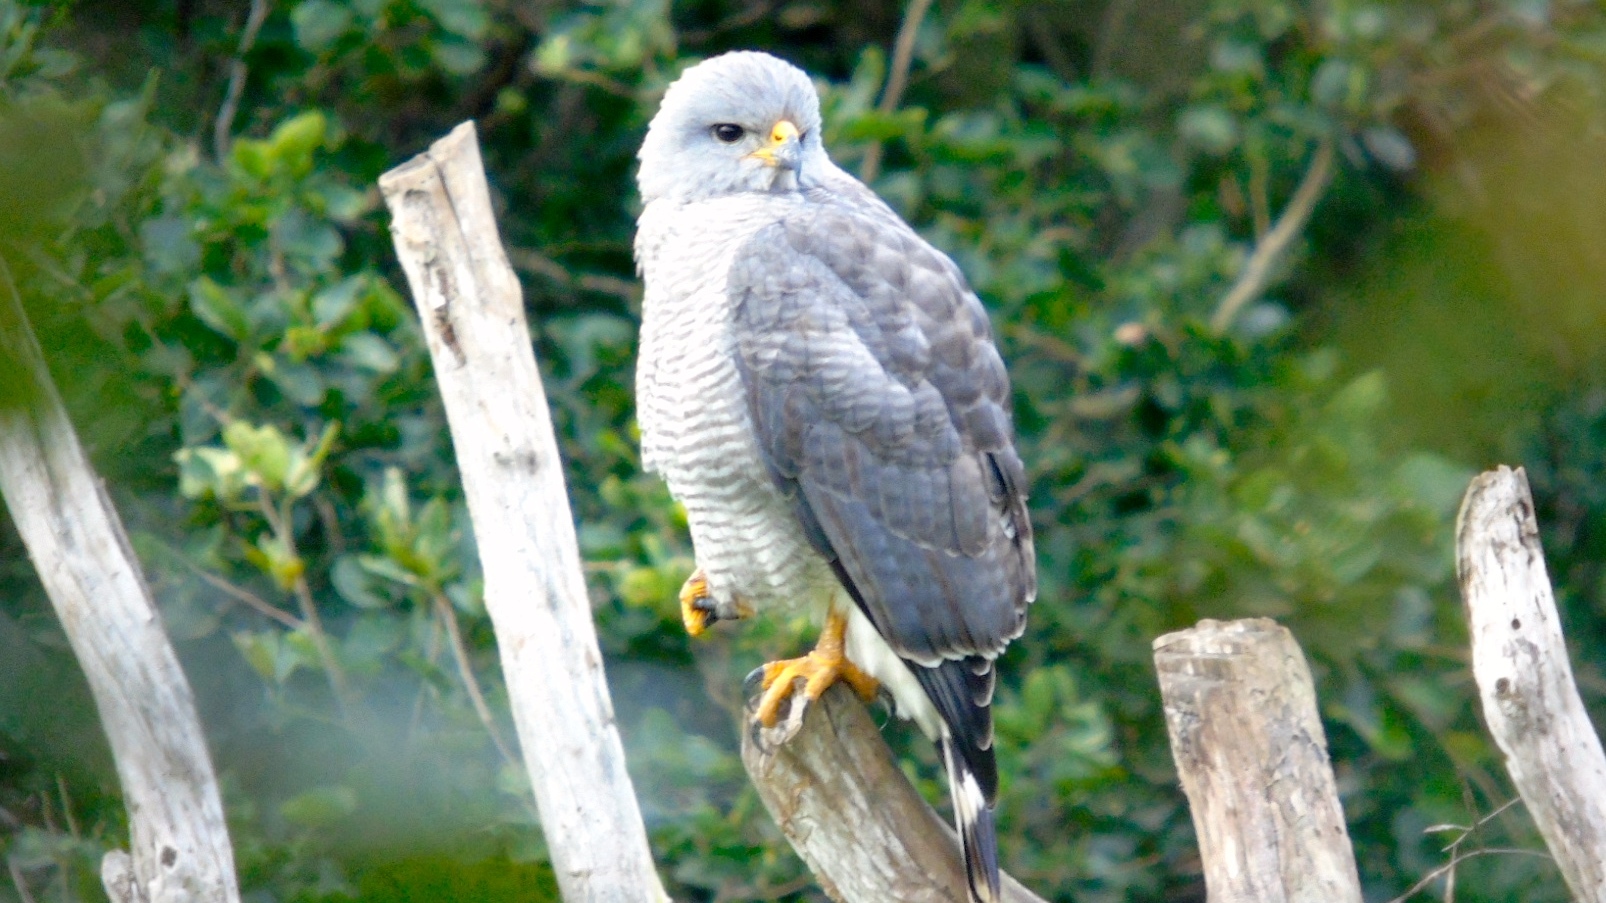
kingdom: Animalia
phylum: Chordata
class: Aves
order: Accipitriformes
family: Accipitridae
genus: Buteo
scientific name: Buteo nitidus
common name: Grey-lined hawk
